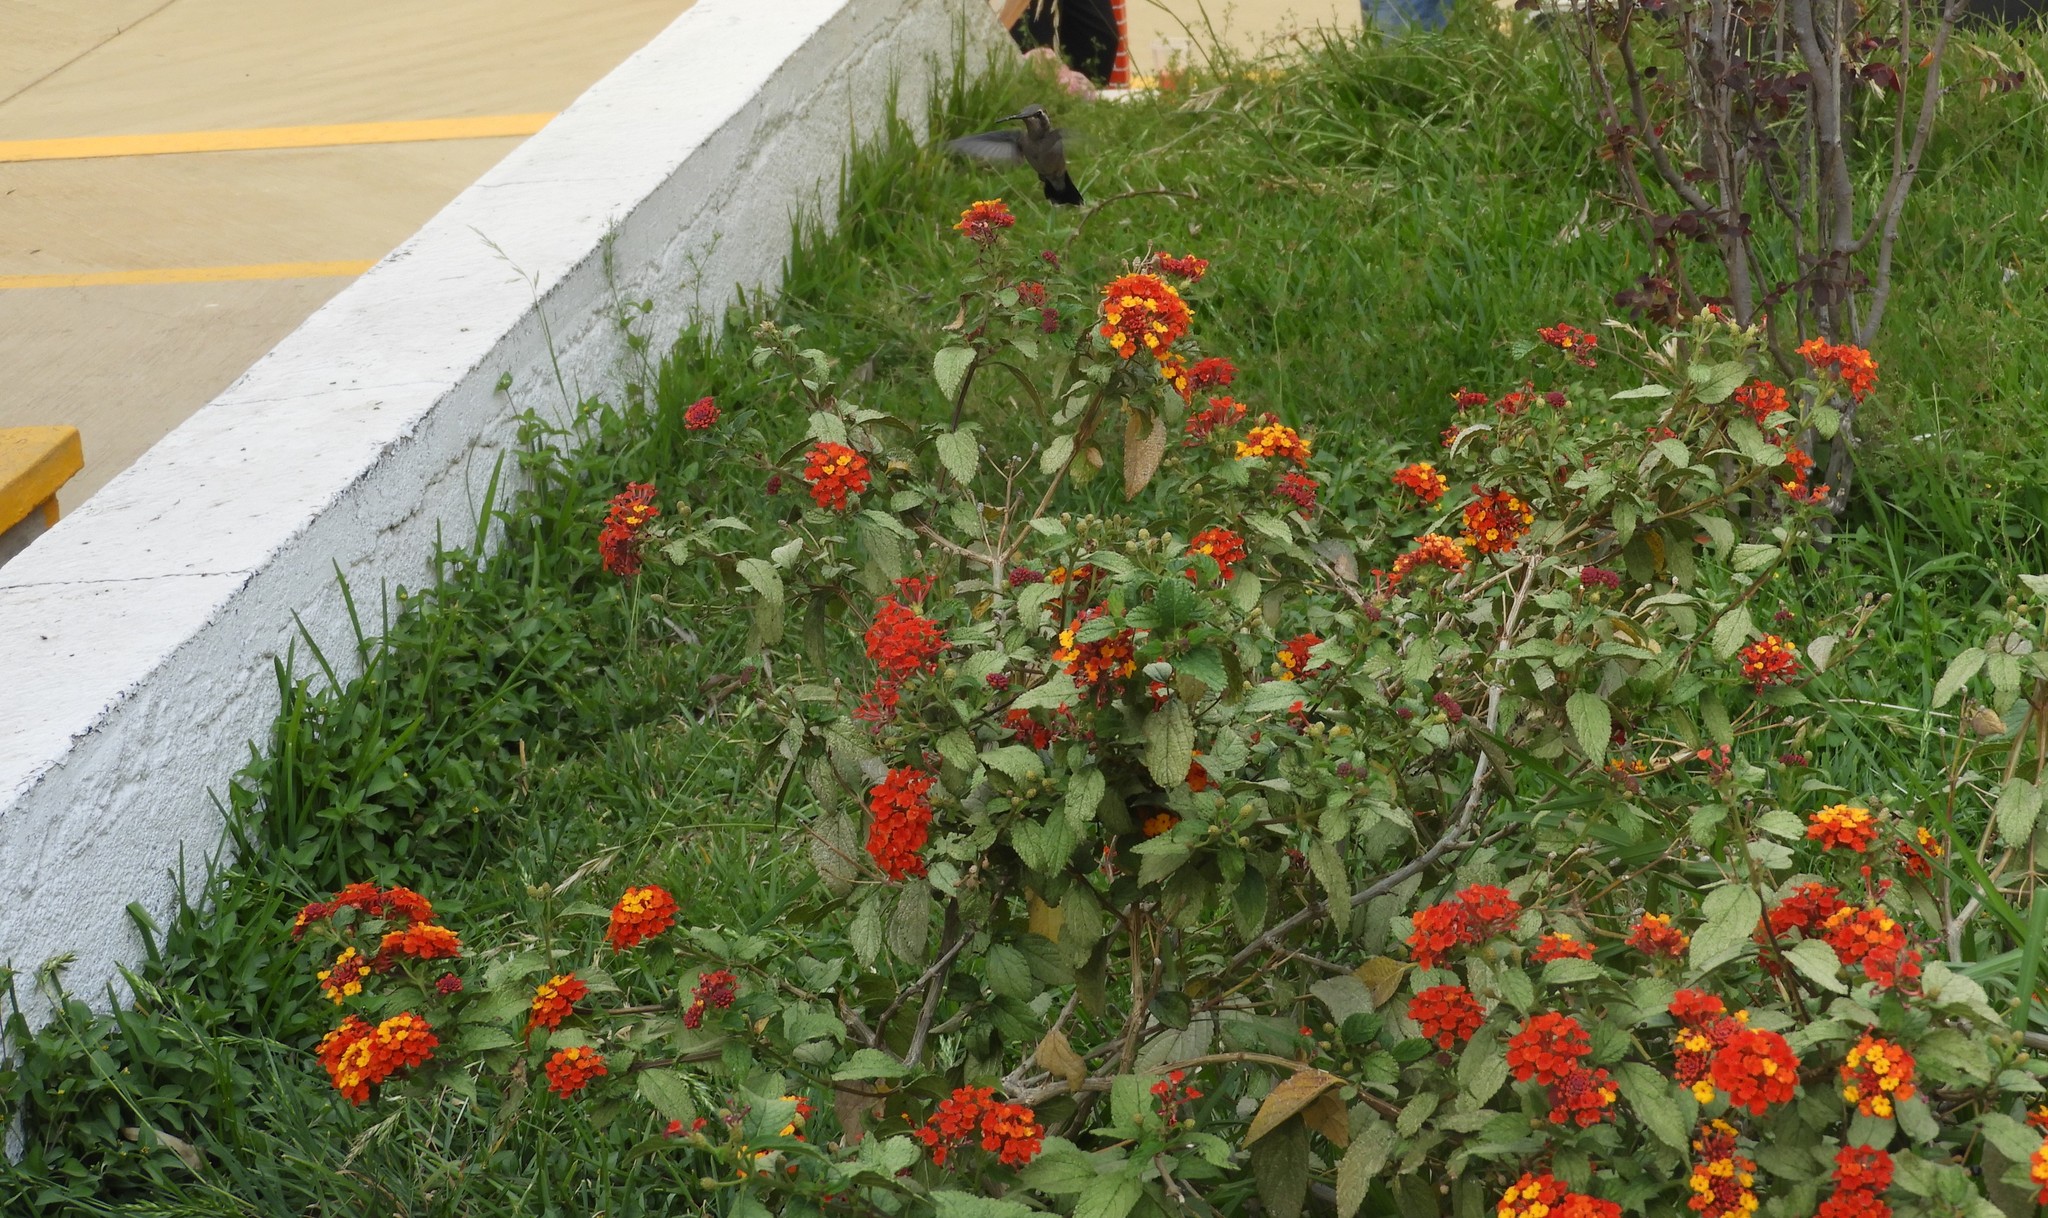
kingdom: Animalia
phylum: Chordata
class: Aves
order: Apodiformes
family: Trochilidae
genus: Cynanthus
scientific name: Cynanthus latirostris
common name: Broad-billed hummingbird
